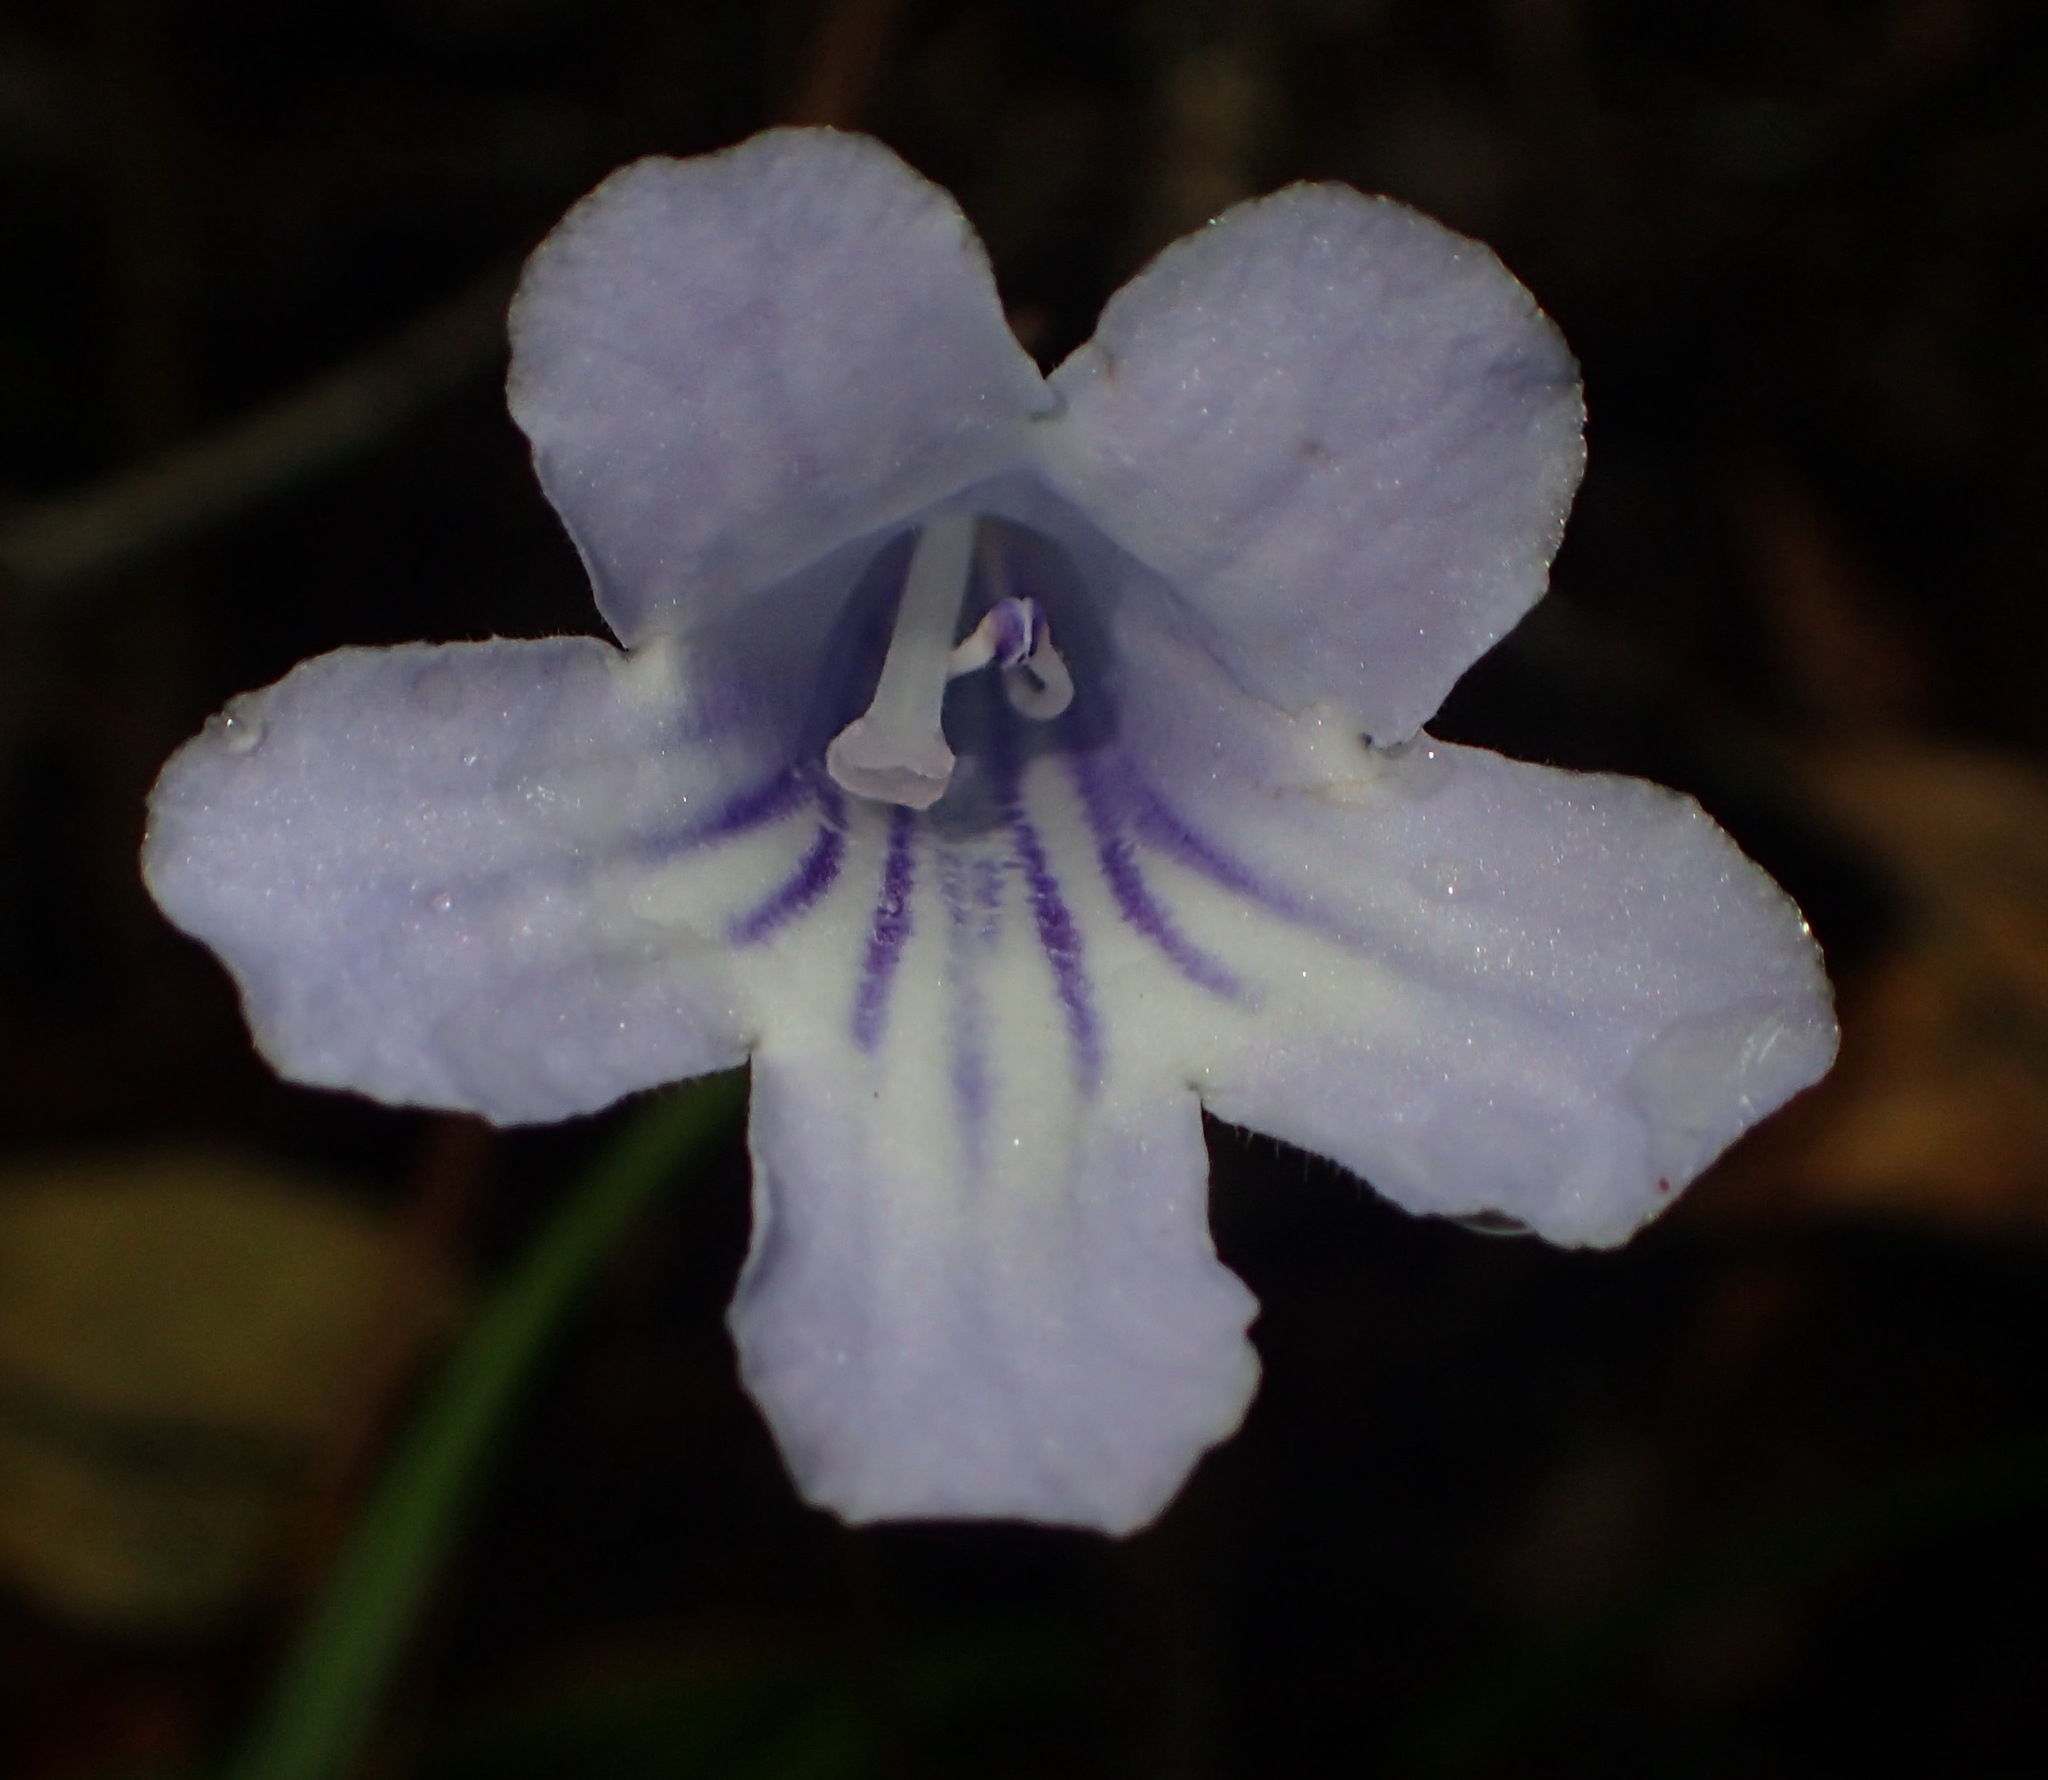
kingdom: Plantae
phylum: Tracheophyta
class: Magnoliopsida
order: Lamiales
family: Gesneriaceae
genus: Streptocarpus
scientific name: Streptocarpus rexii
